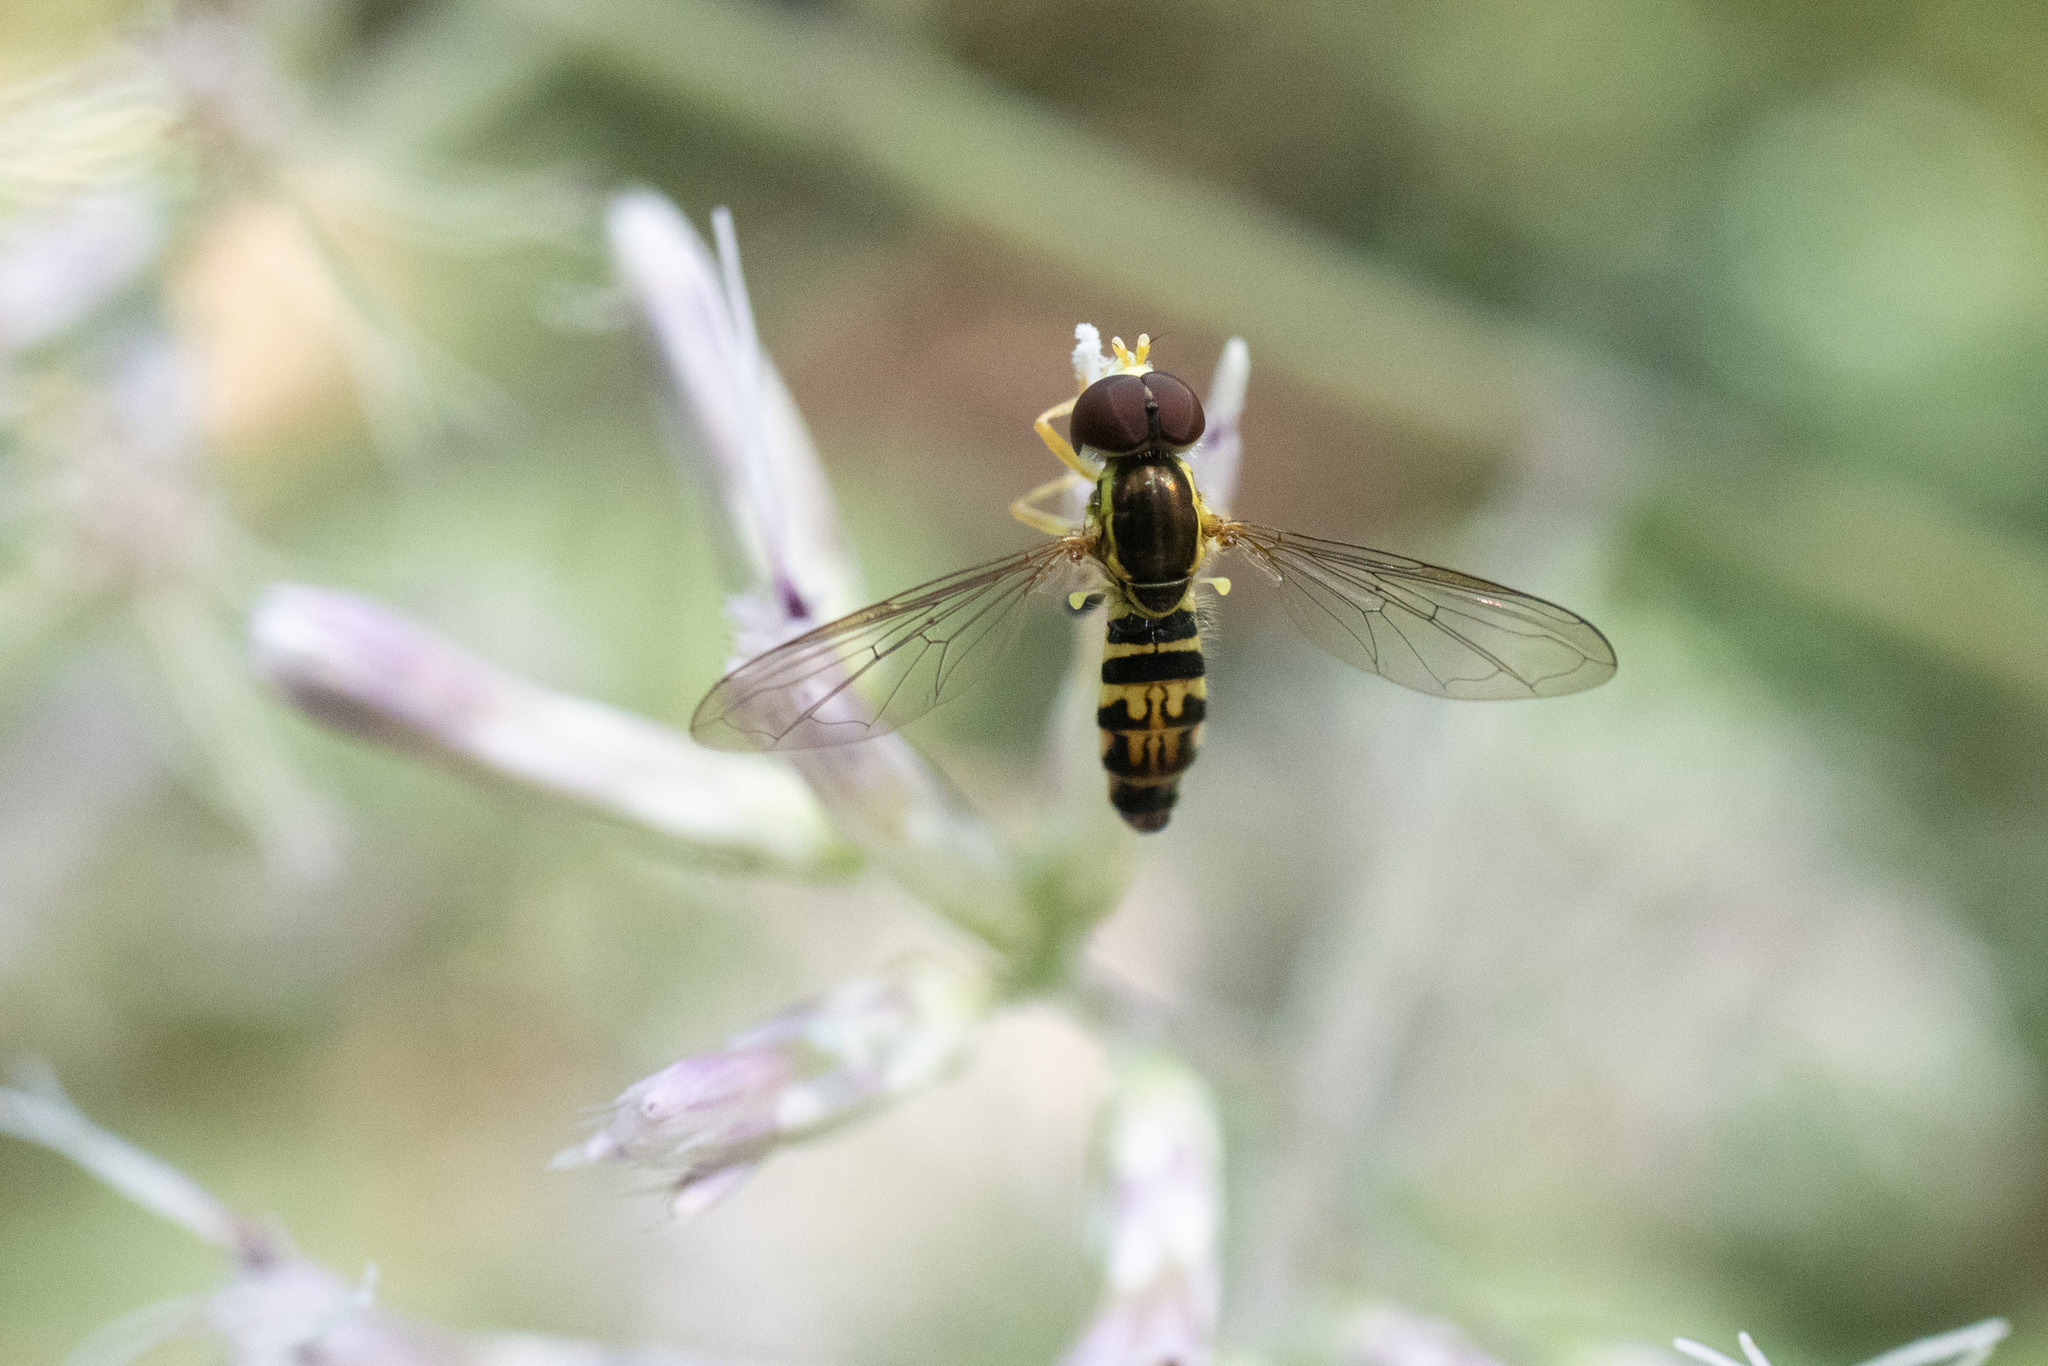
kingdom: Animalia
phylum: Arthropoda
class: Insecta
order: Diptera
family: Syrphidae
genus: Toxomerus
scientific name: Toxomerus geminatus
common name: Eastern calligrapher
